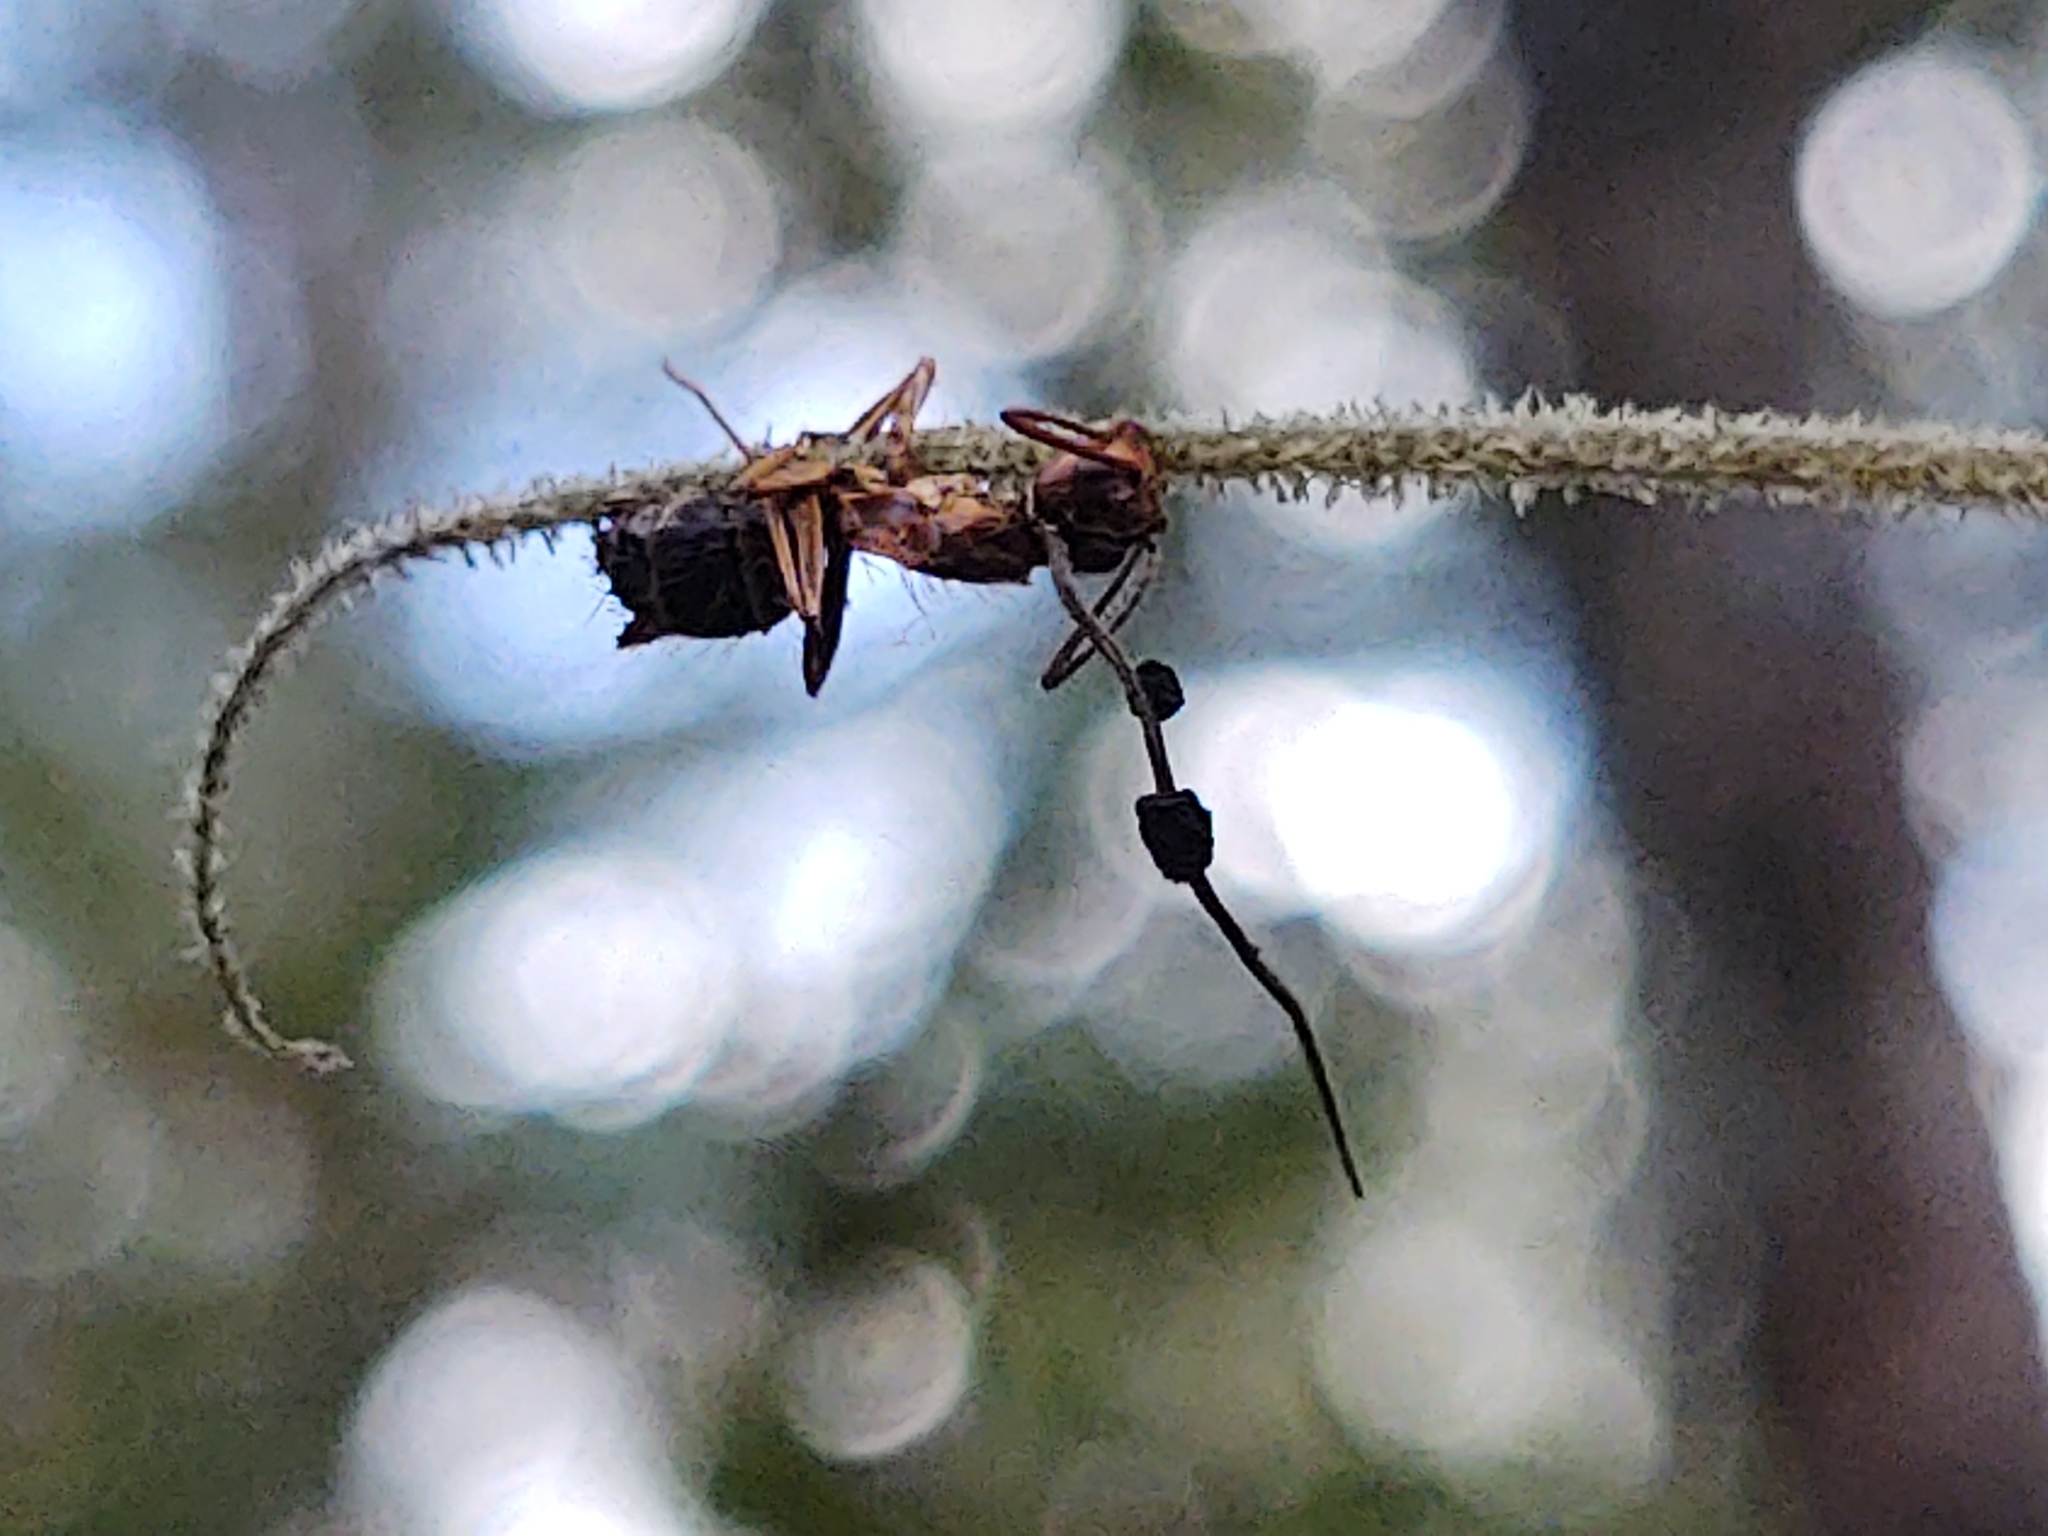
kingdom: Fungi
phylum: Ascomycota
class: Sordariomycetes
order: Hypocreales
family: Ophiocordycipitaceae
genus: Ophiocordyceps
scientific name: Ophiocordyceps camponoti-floridani
